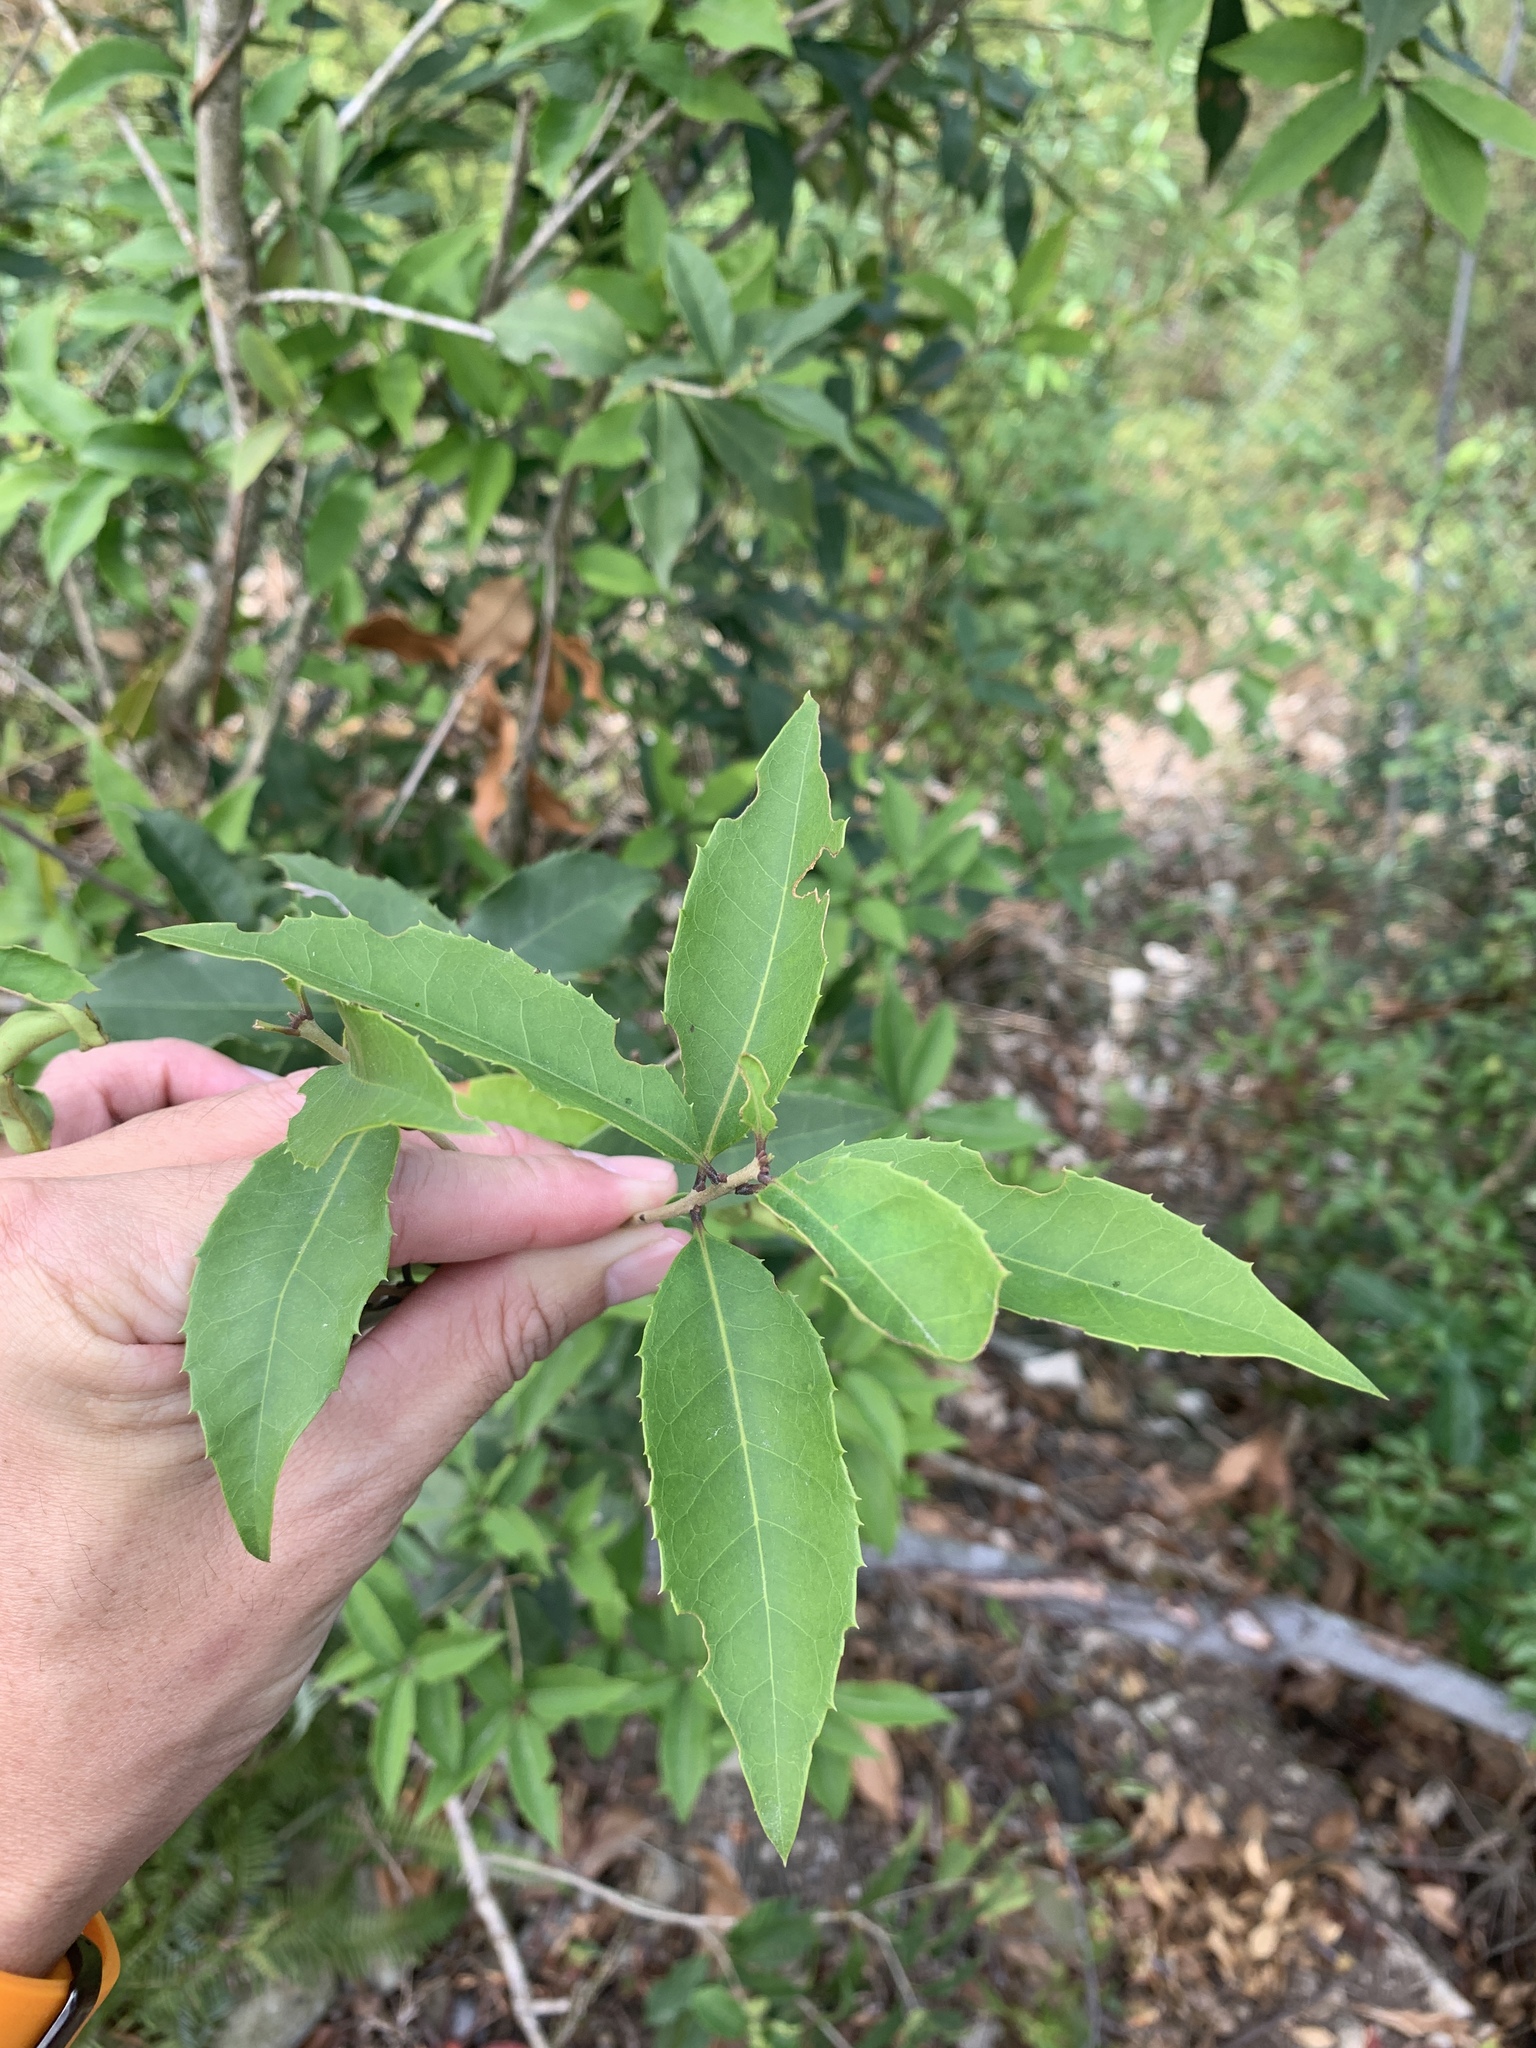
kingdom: Plantae
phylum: Tracheophyta
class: Magnoliopsida
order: Lamiales
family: Oleaceae
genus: Osmanthus
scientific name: Osmanthus enervius
